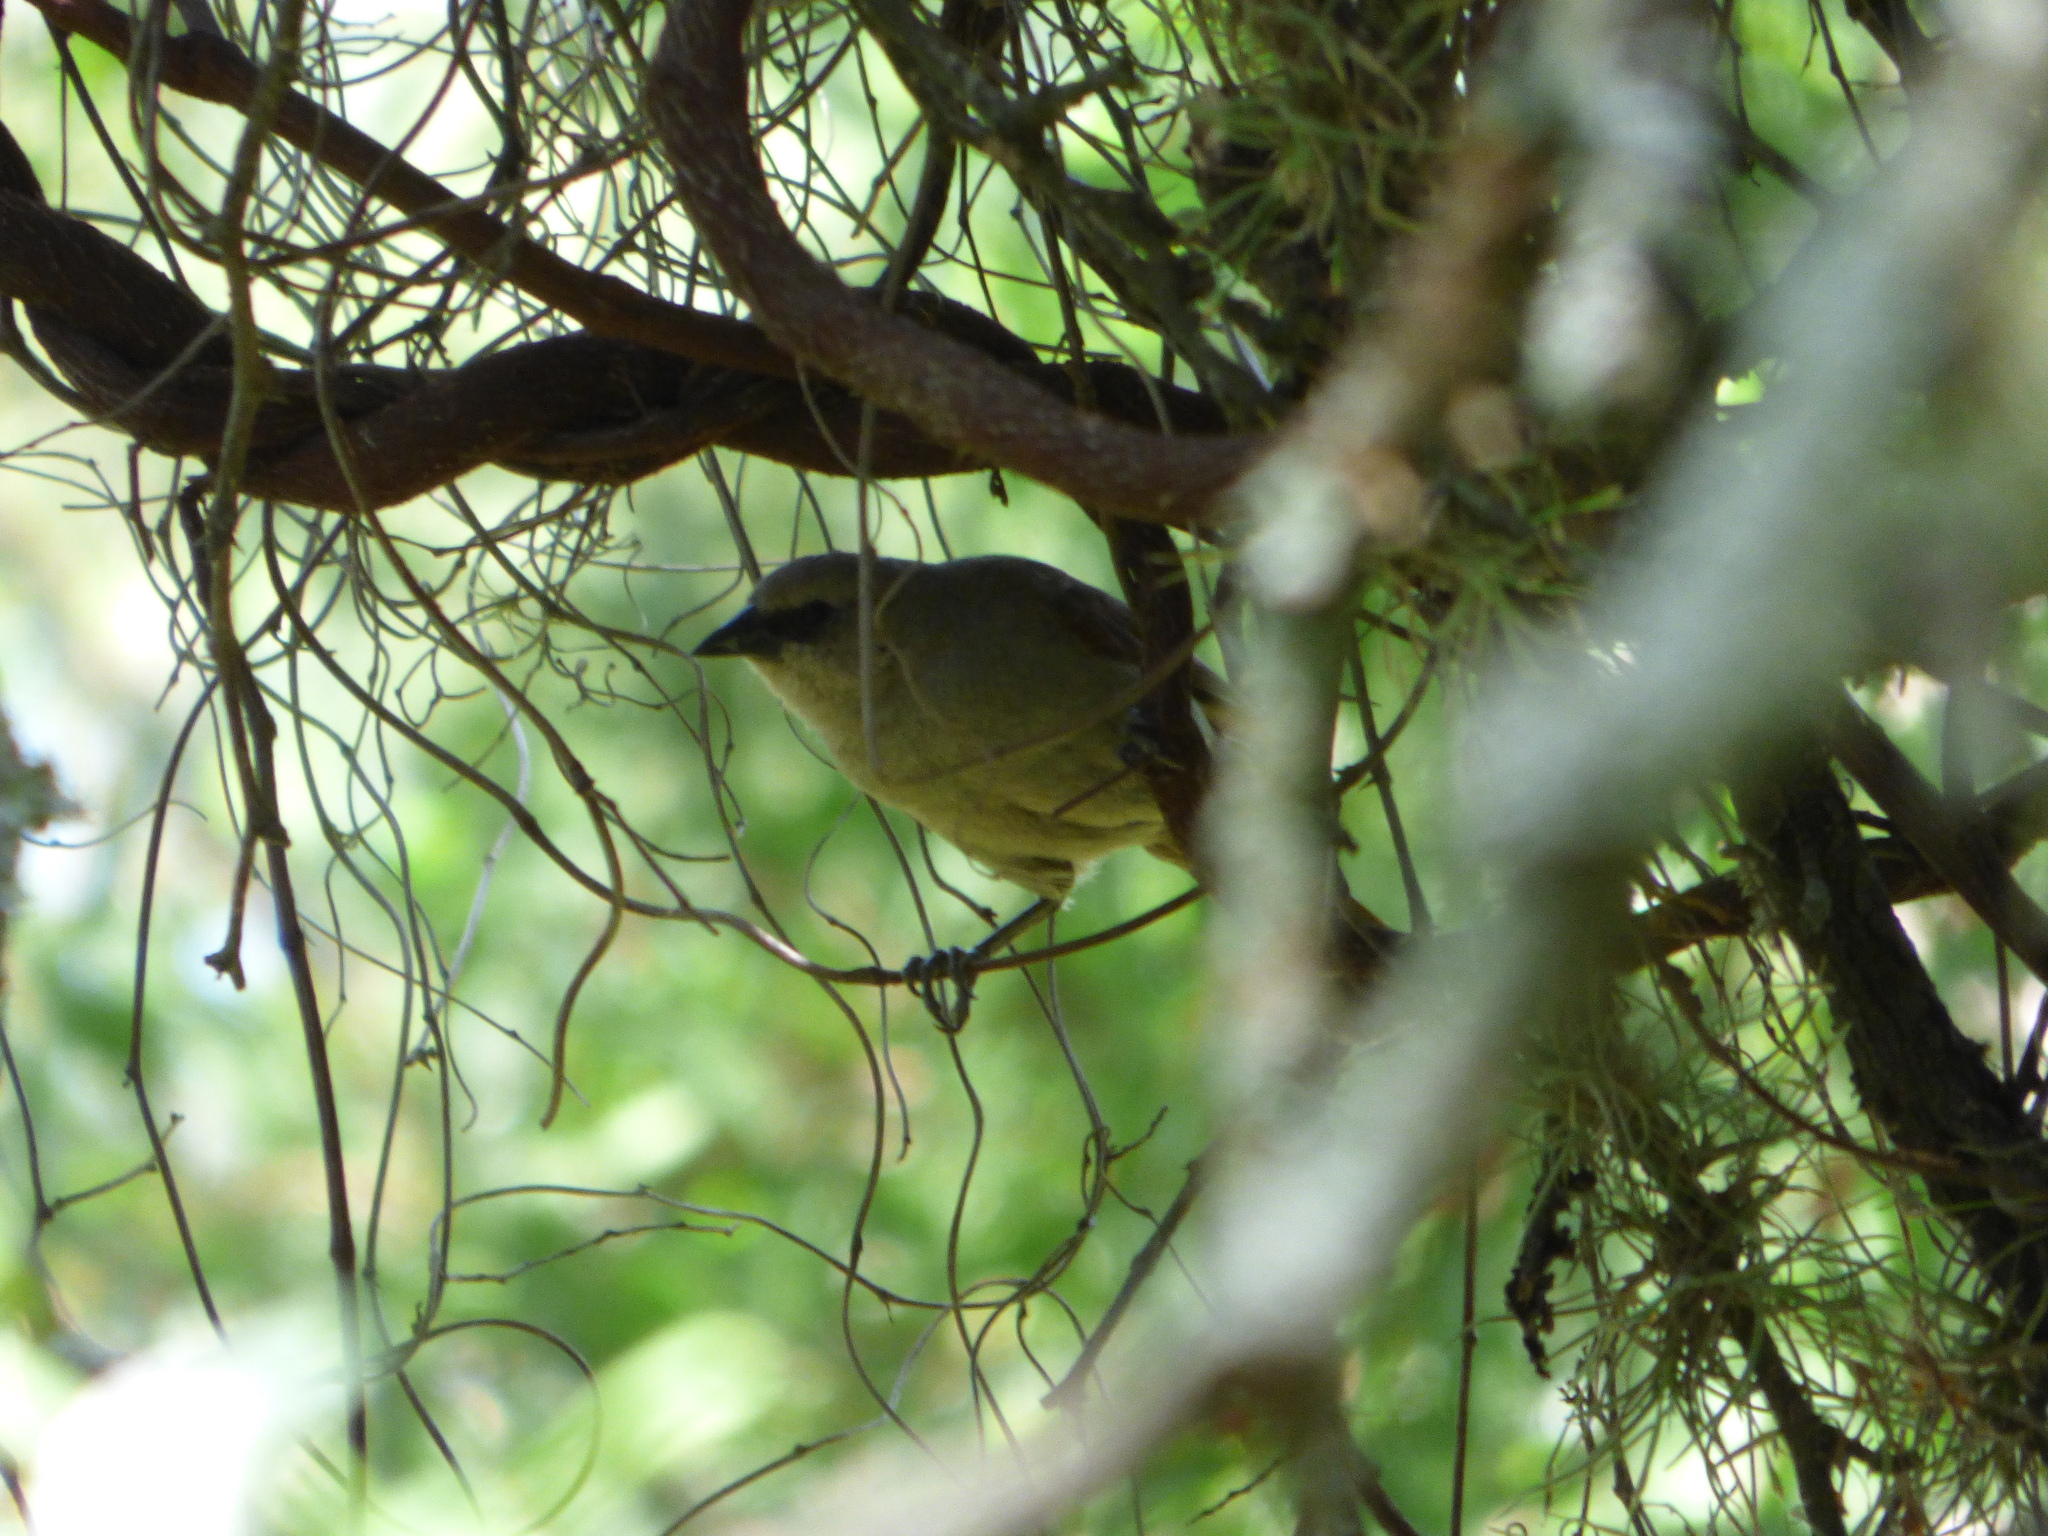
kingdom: Animalia
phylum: Chordata
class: Aves
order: Passeriformes
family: Icteridae
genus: Agelaioides
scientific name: Agelaioides badius
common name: Baywing
